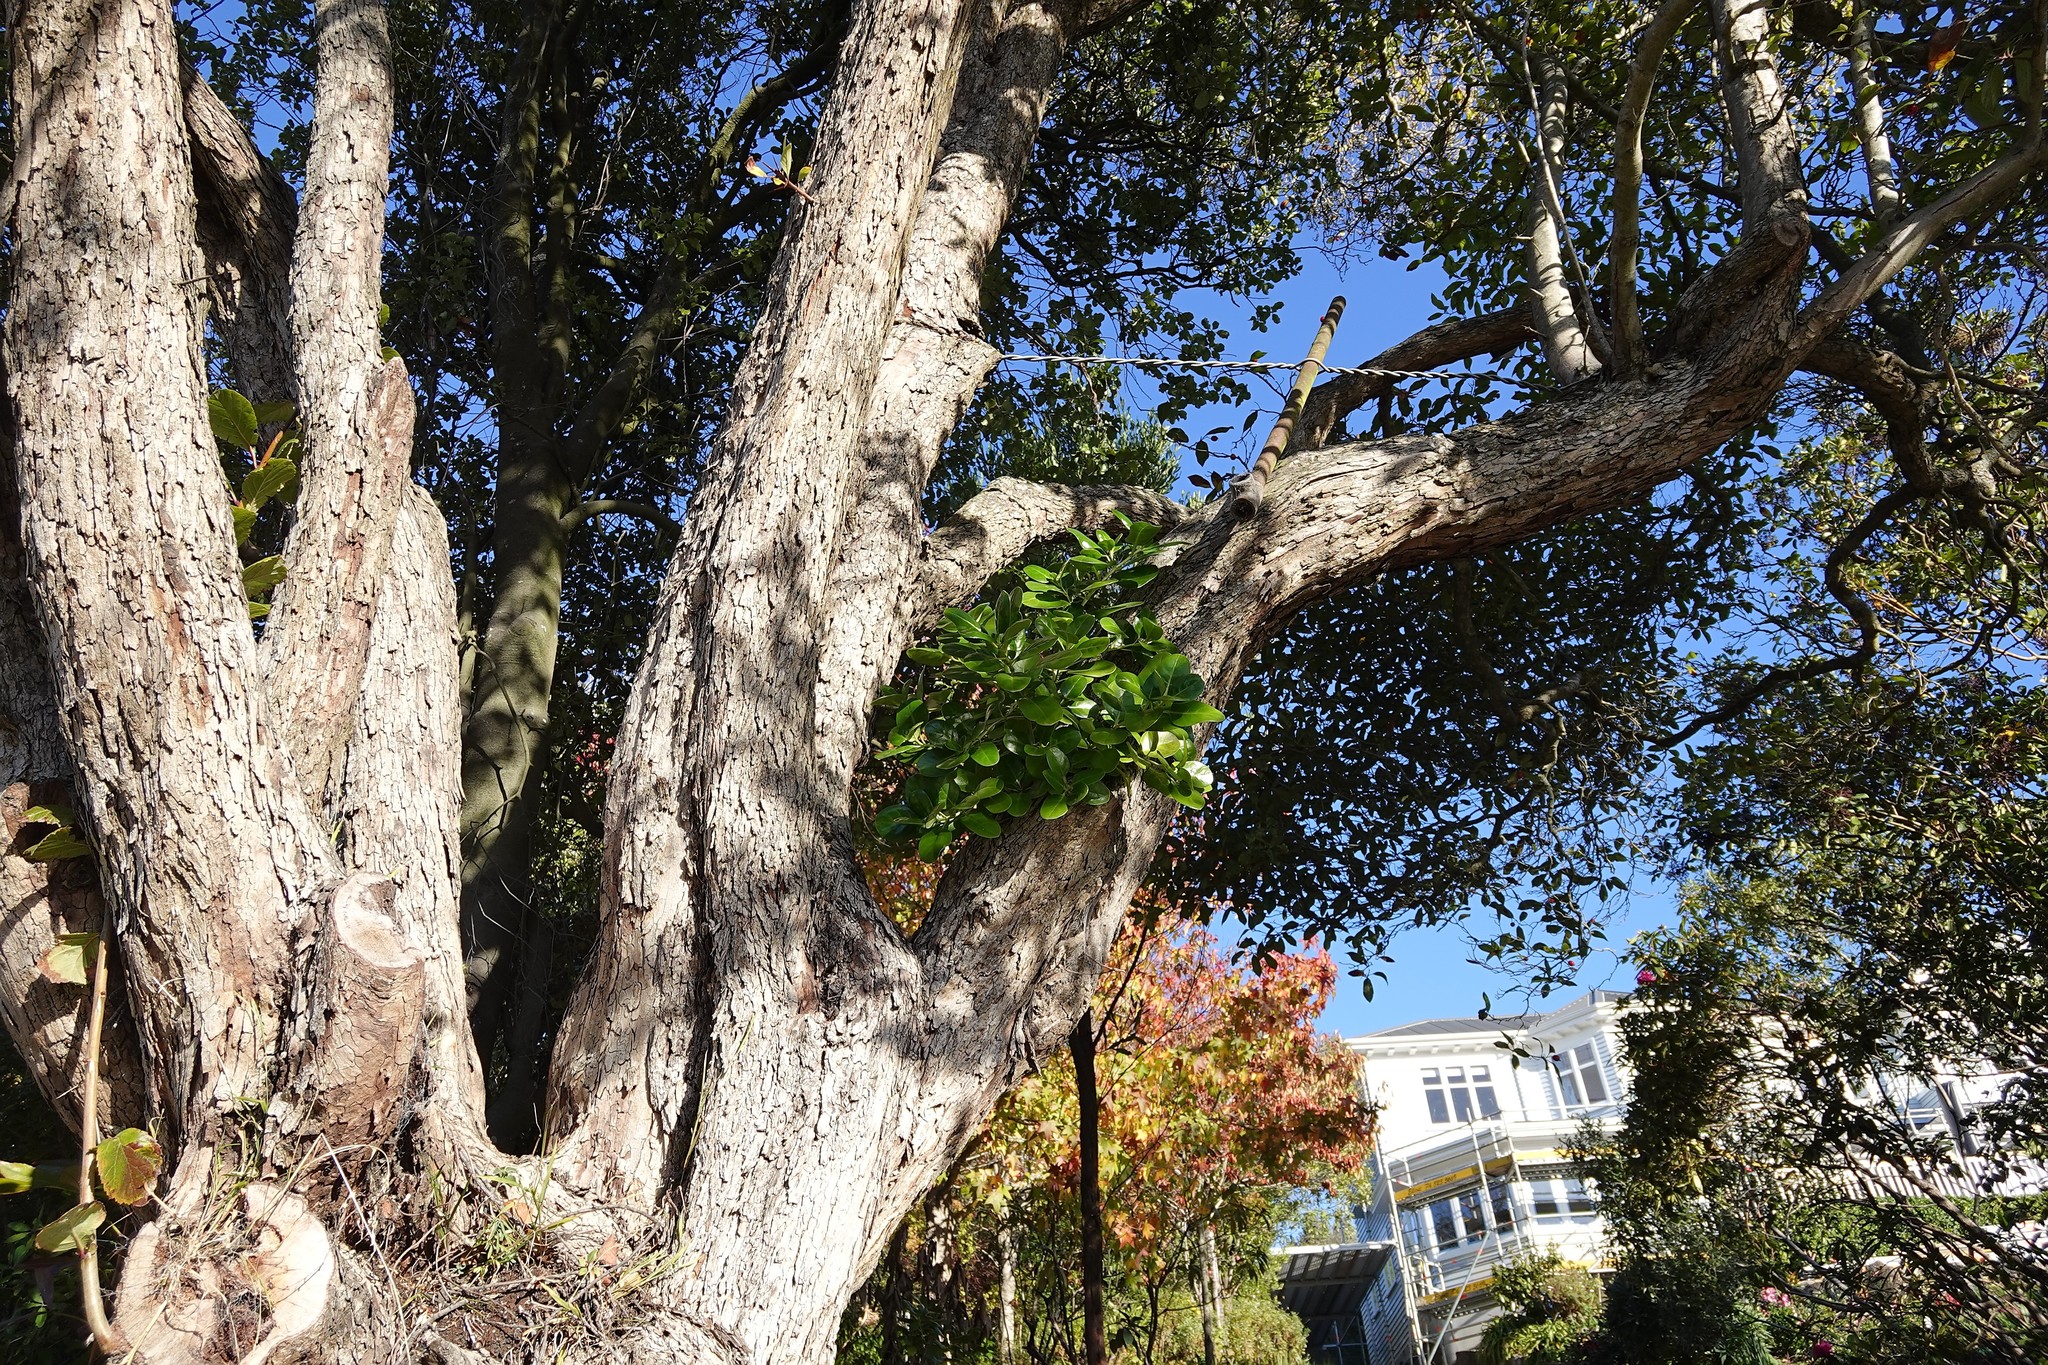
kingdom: Plantae
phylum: Tracheophyta
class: Magnoliopsida
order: Gentianales
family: Rubiaceae
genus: Coprosma
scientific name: Coprosma repens
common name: Tree bedstraw
